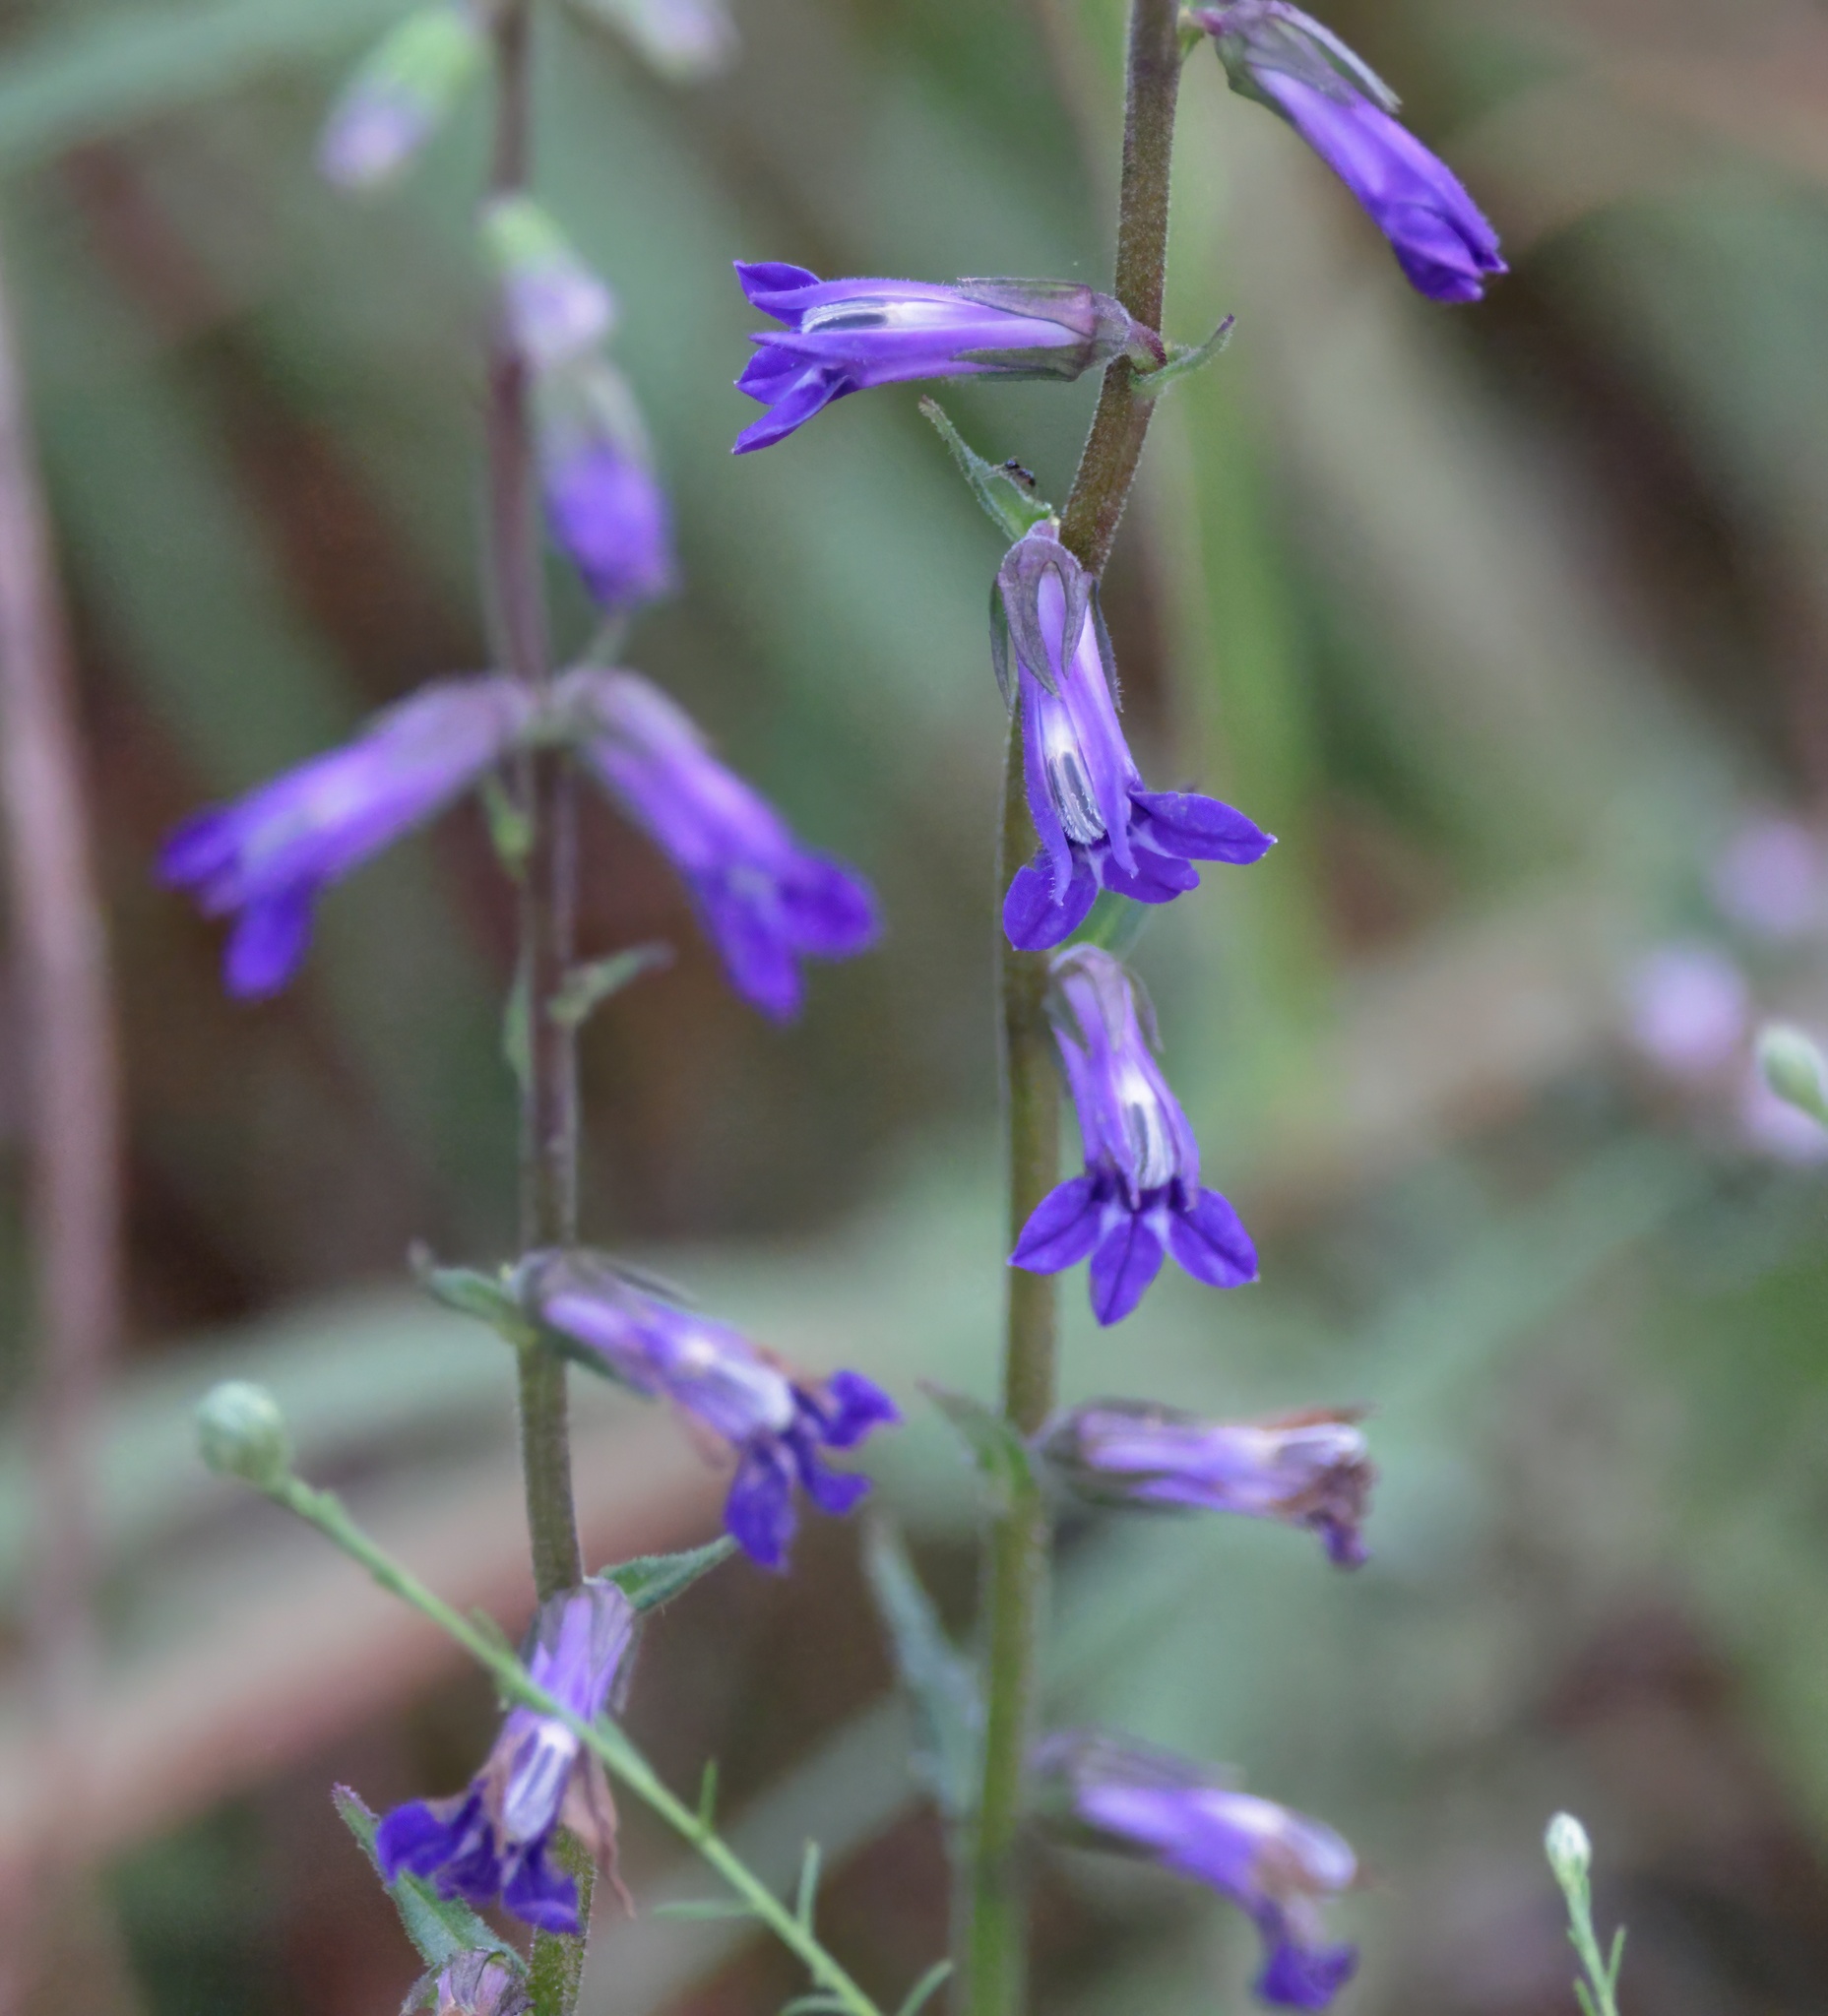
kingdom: Plantae
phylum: Tracheophyta
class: Magnoliopsida
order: Asterales
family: Campanulaceae
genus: Lobelia
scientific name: Lobelia puberula
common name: Purple dewdrop
